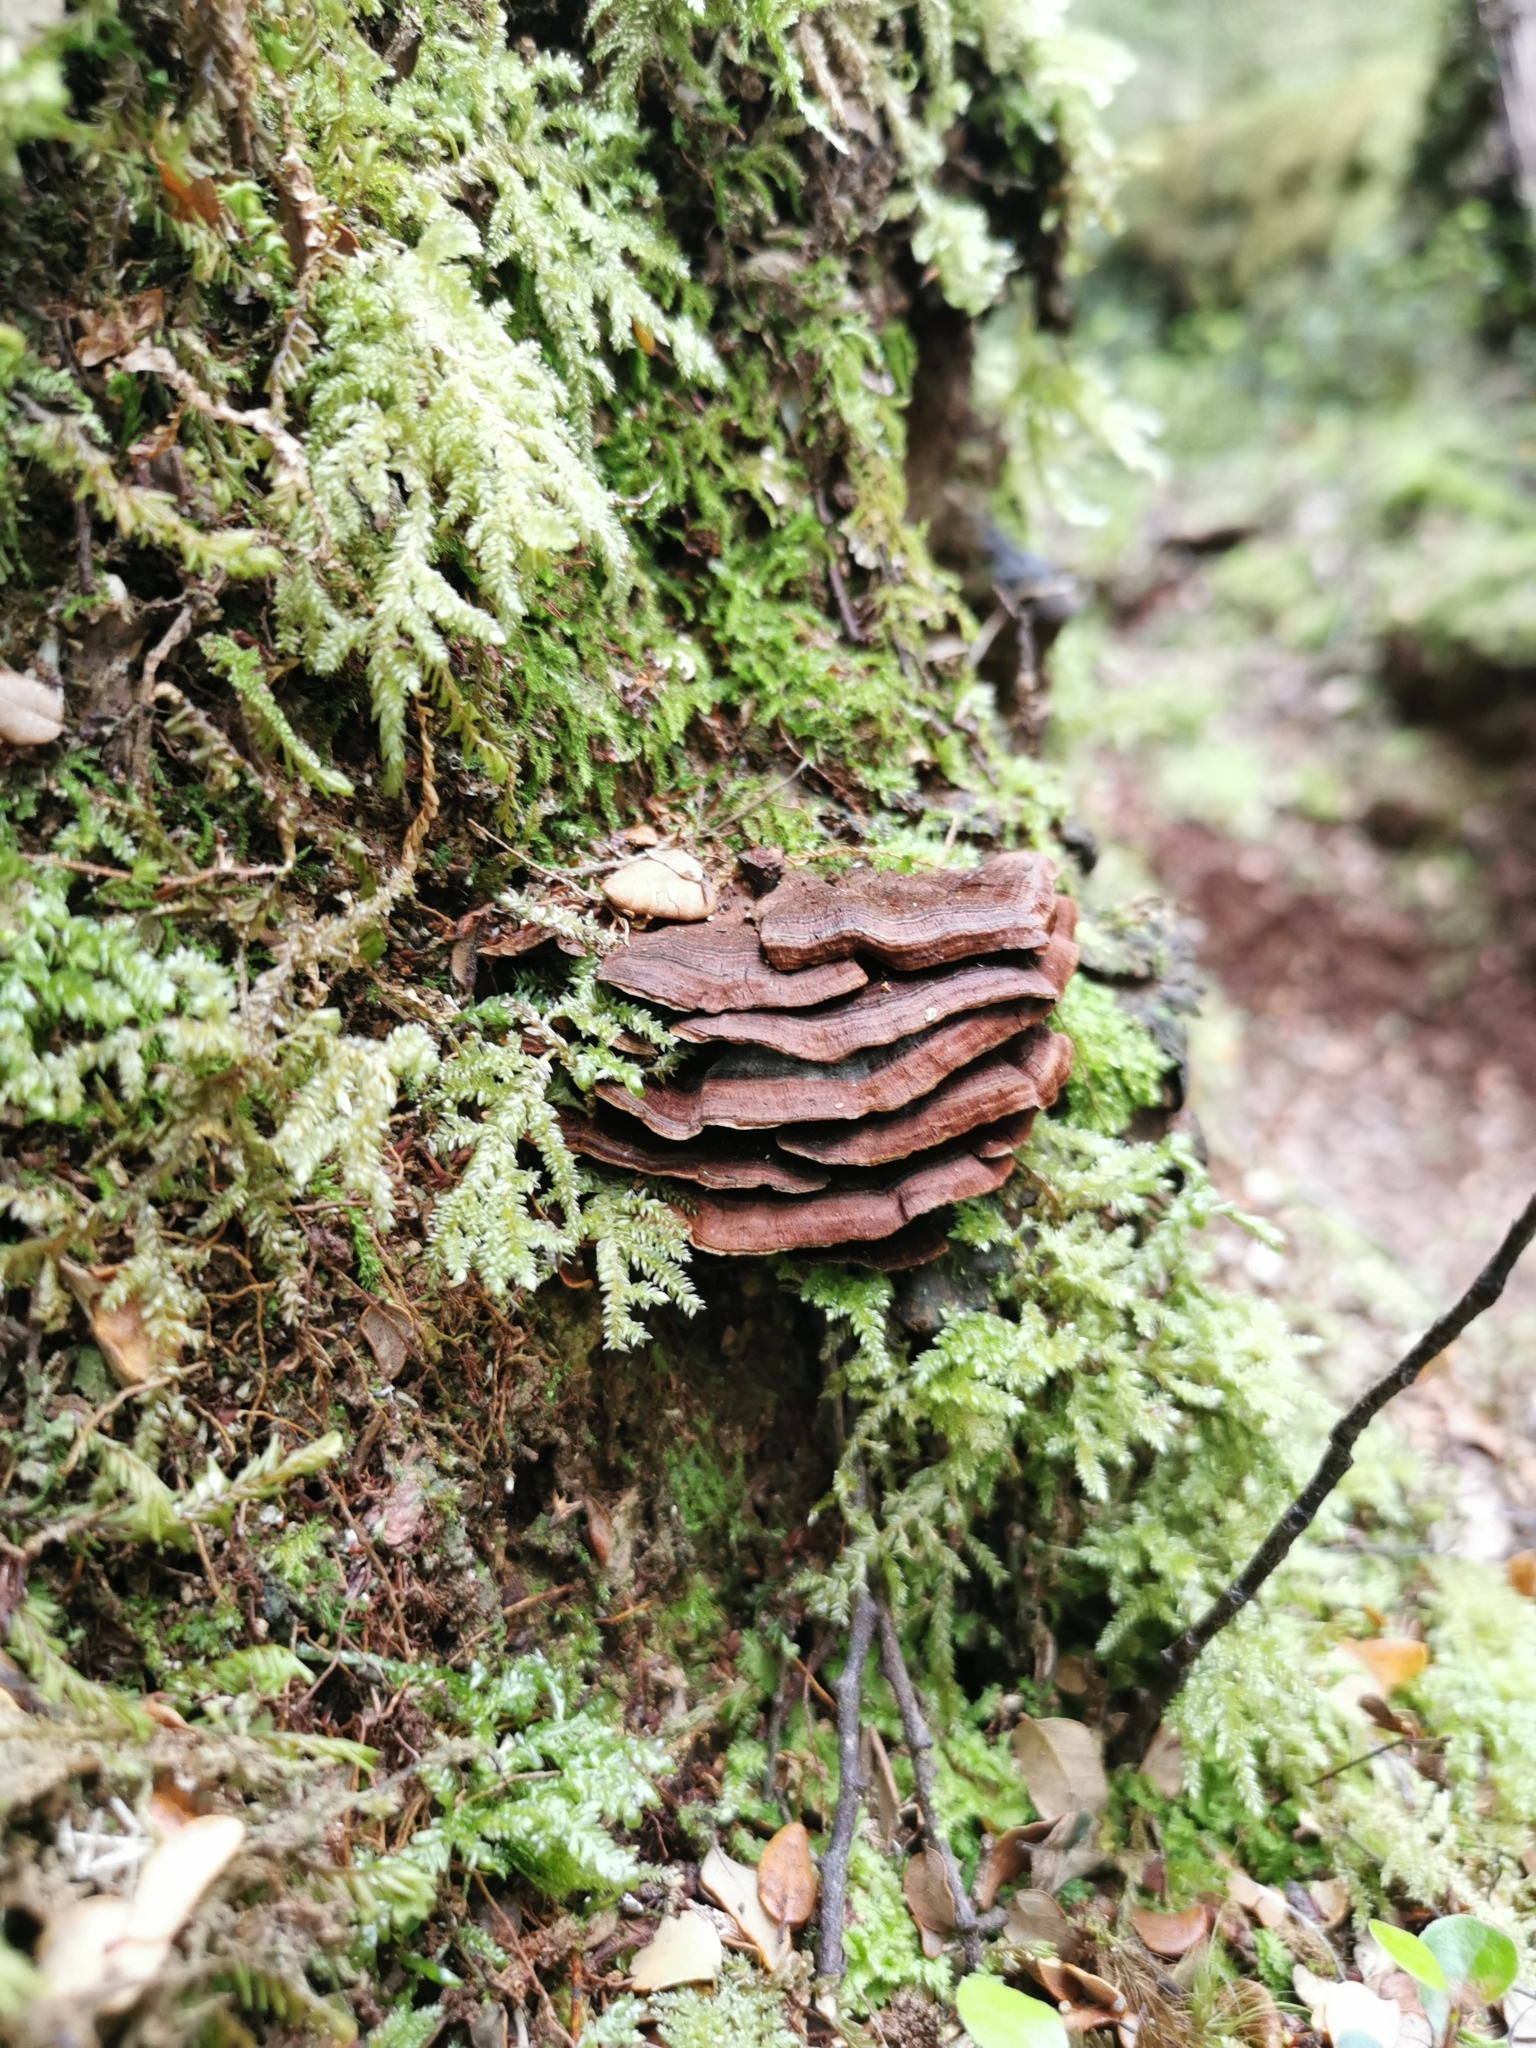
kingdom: Fungi
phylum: Basidiomycota
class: Agaricomycetes
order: Hymenochaetales
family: Hymenochaetaceae
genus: Hymenochaete
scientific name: Hymenochaete microcycla
